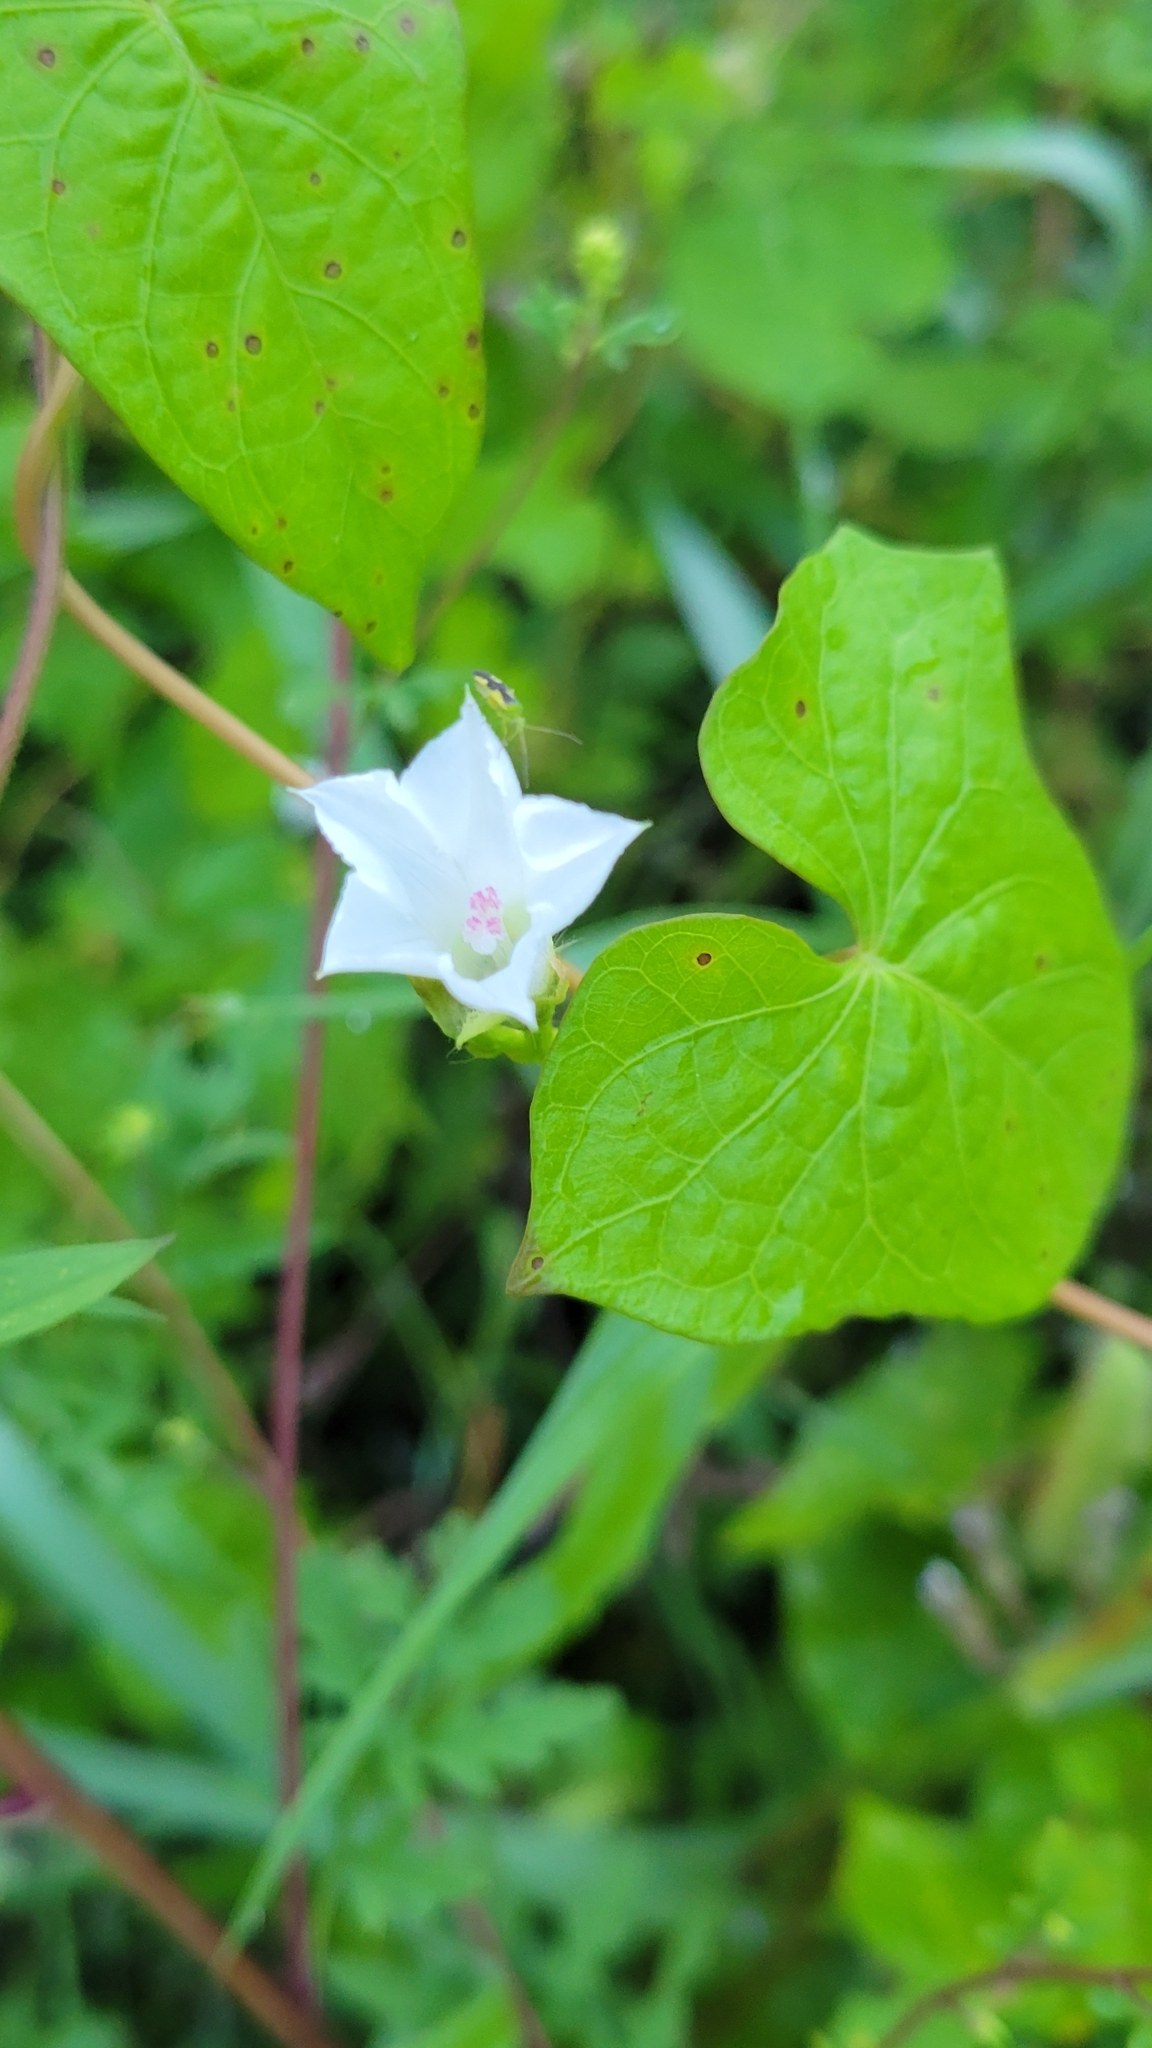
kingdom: Plantae
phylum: Tracheophyta
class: Magnoliopsida
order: Solanales
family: Convolvulaceae
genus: Ipomoea
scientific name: Ipomoea lacunosa
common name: White morning-glory
